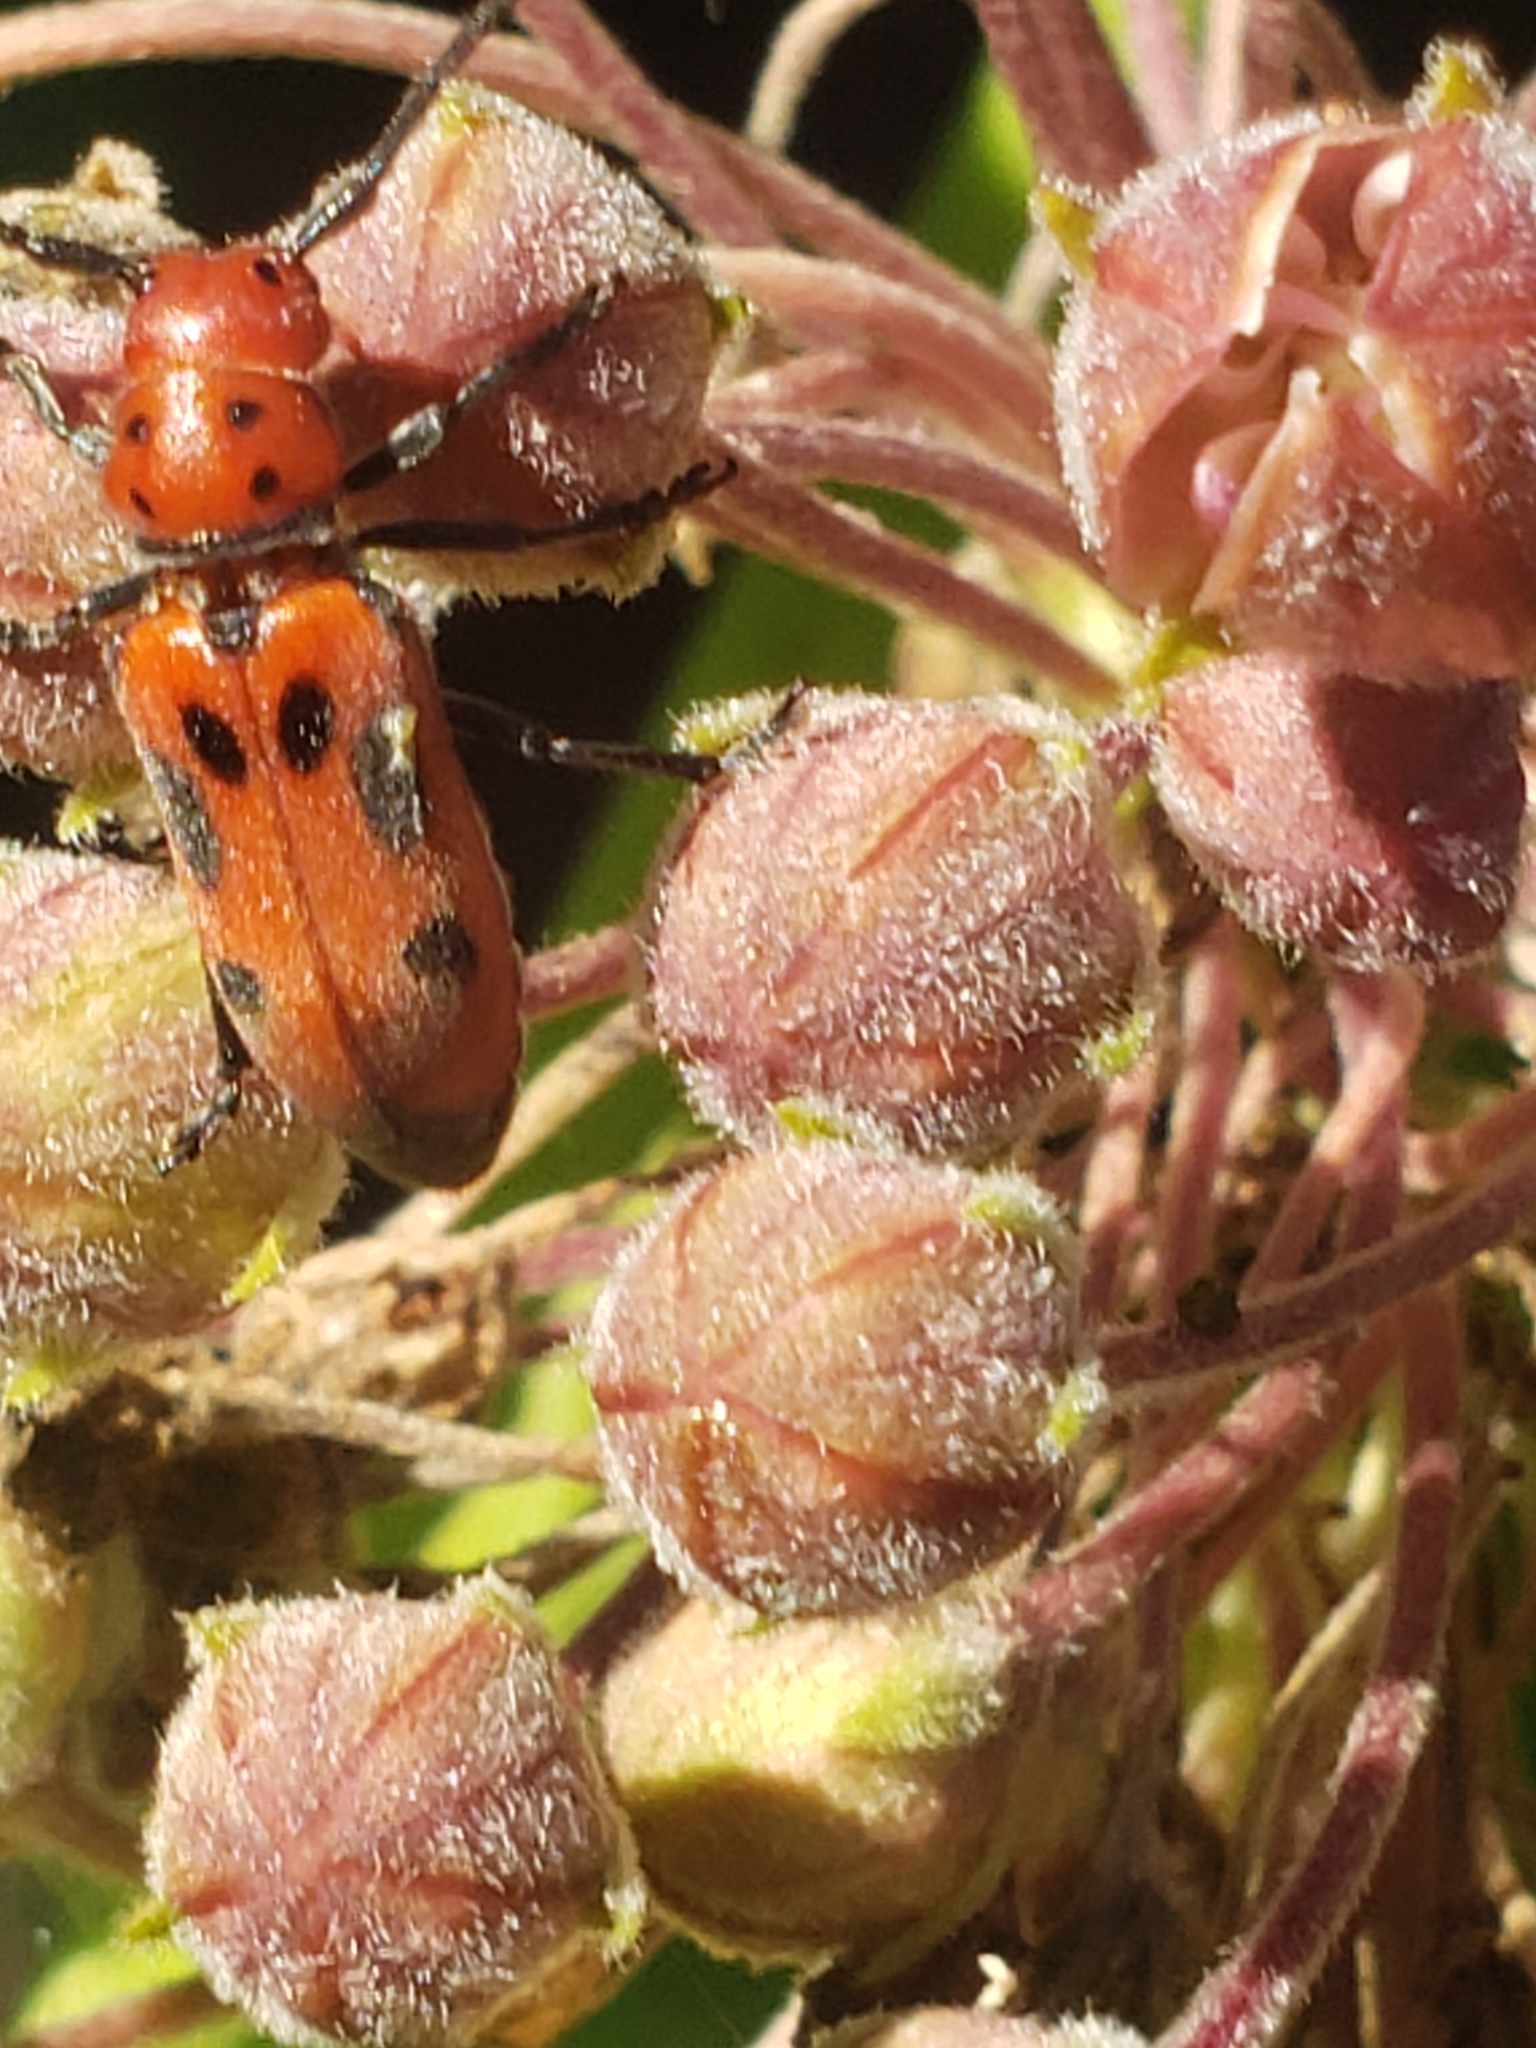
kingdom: Animalia
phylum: Arthropoda
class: Insecta
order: Coleoptera
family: Cerambycidae
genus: Tetraopes
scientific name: Tetraopes tetrophthalmus
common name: Red milkweed beetle
